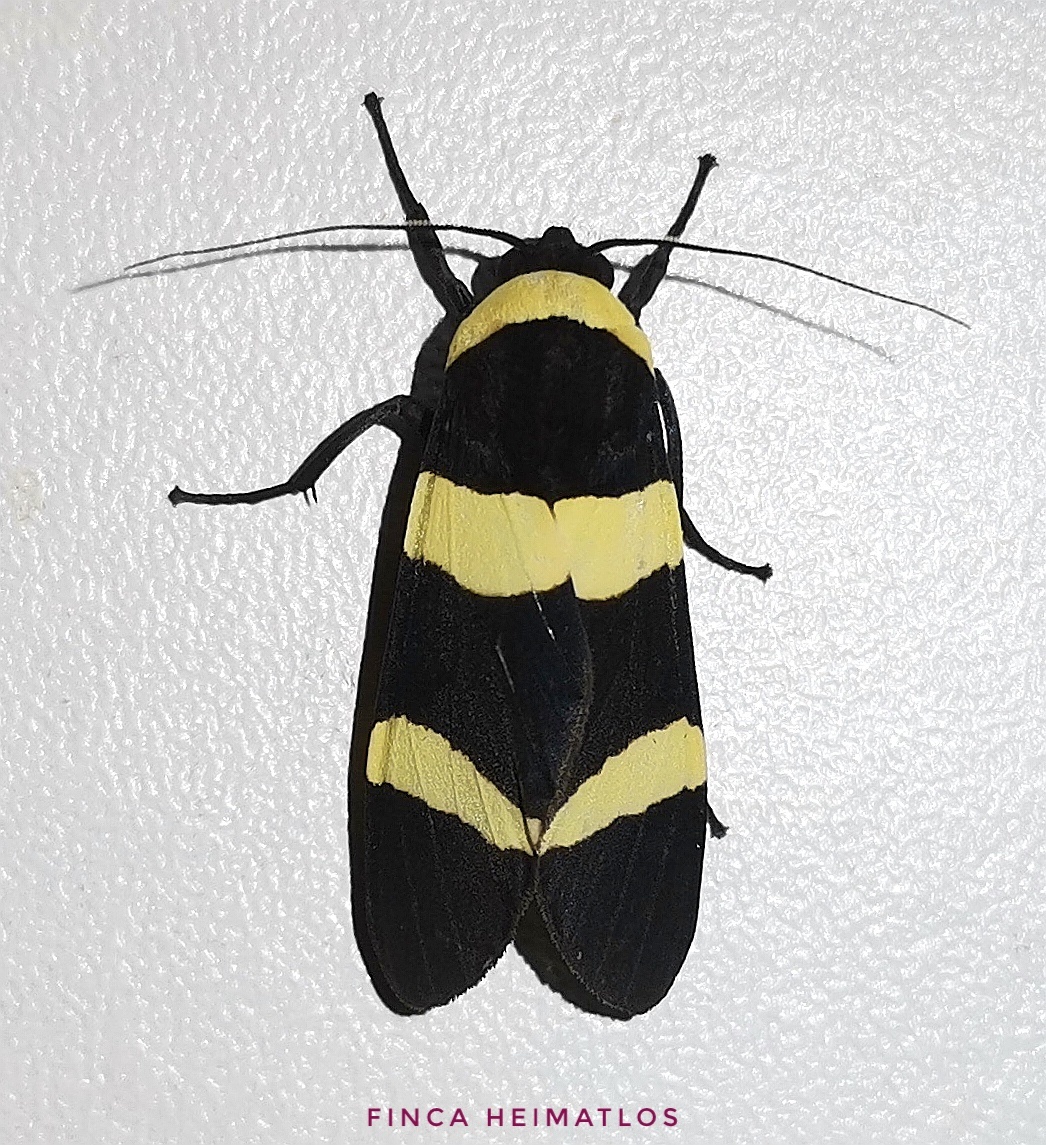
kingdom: Animalia
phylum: Arthropoda
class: Insecta
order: Lepidoptera
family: Erebidae
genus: Viviennea
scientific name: Viviennea moma
